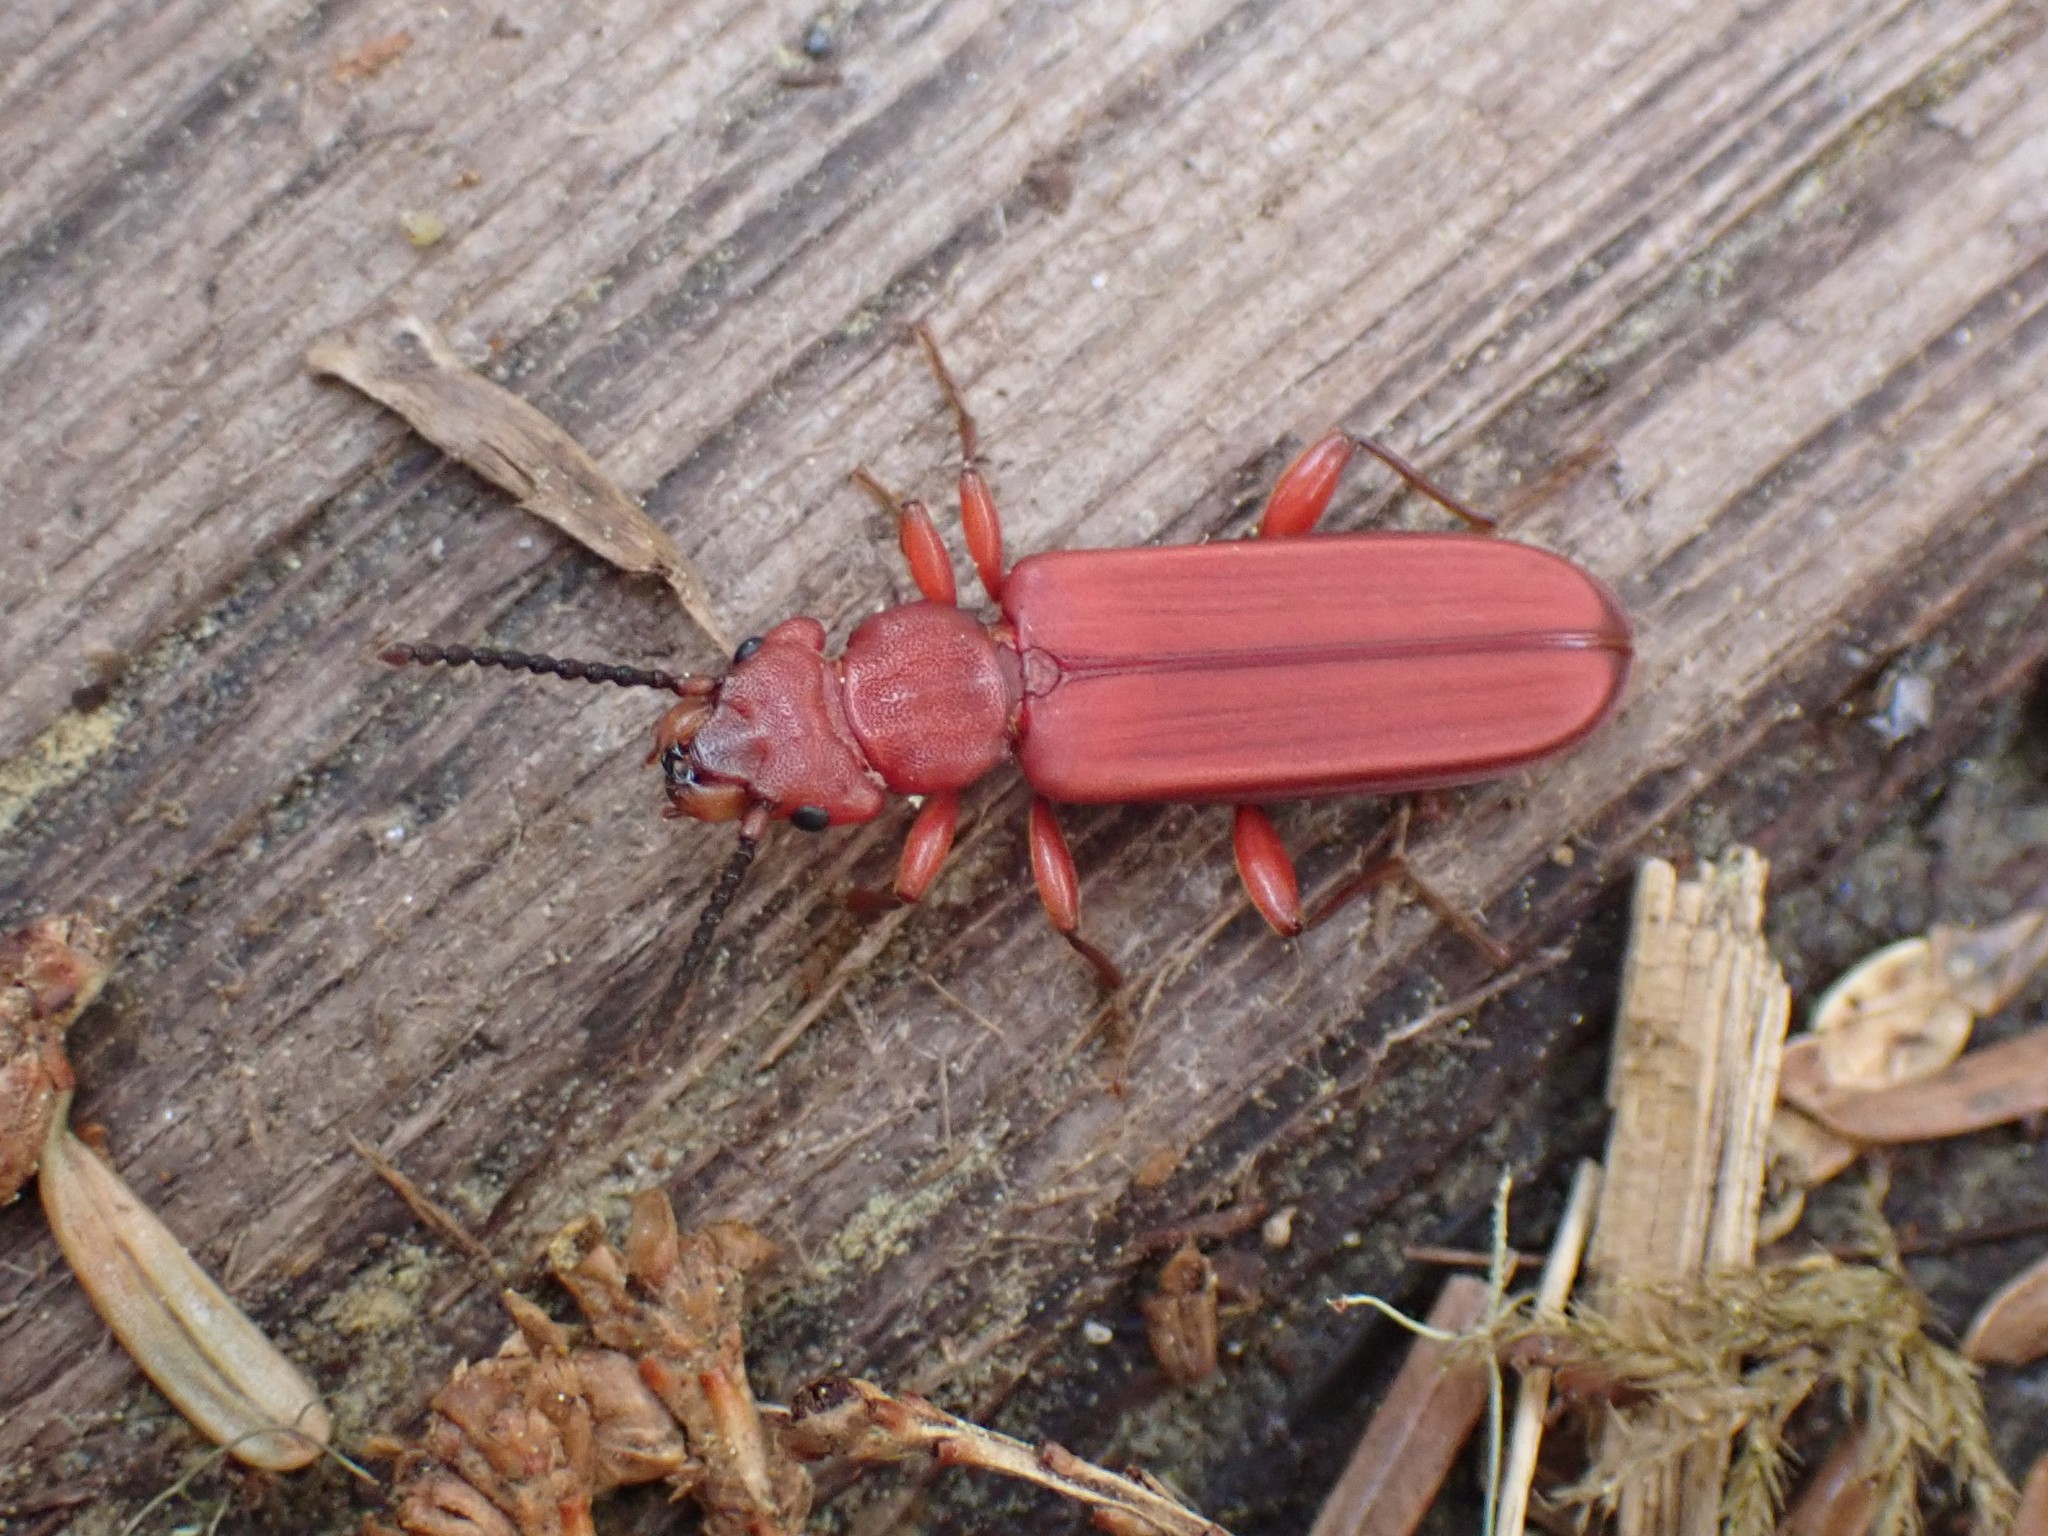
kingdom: Animalia
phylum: Arthropoda
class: Insecta
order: Coleoptera
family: Cucujidae
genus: Cucujus
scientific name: Cucujus clavipes
